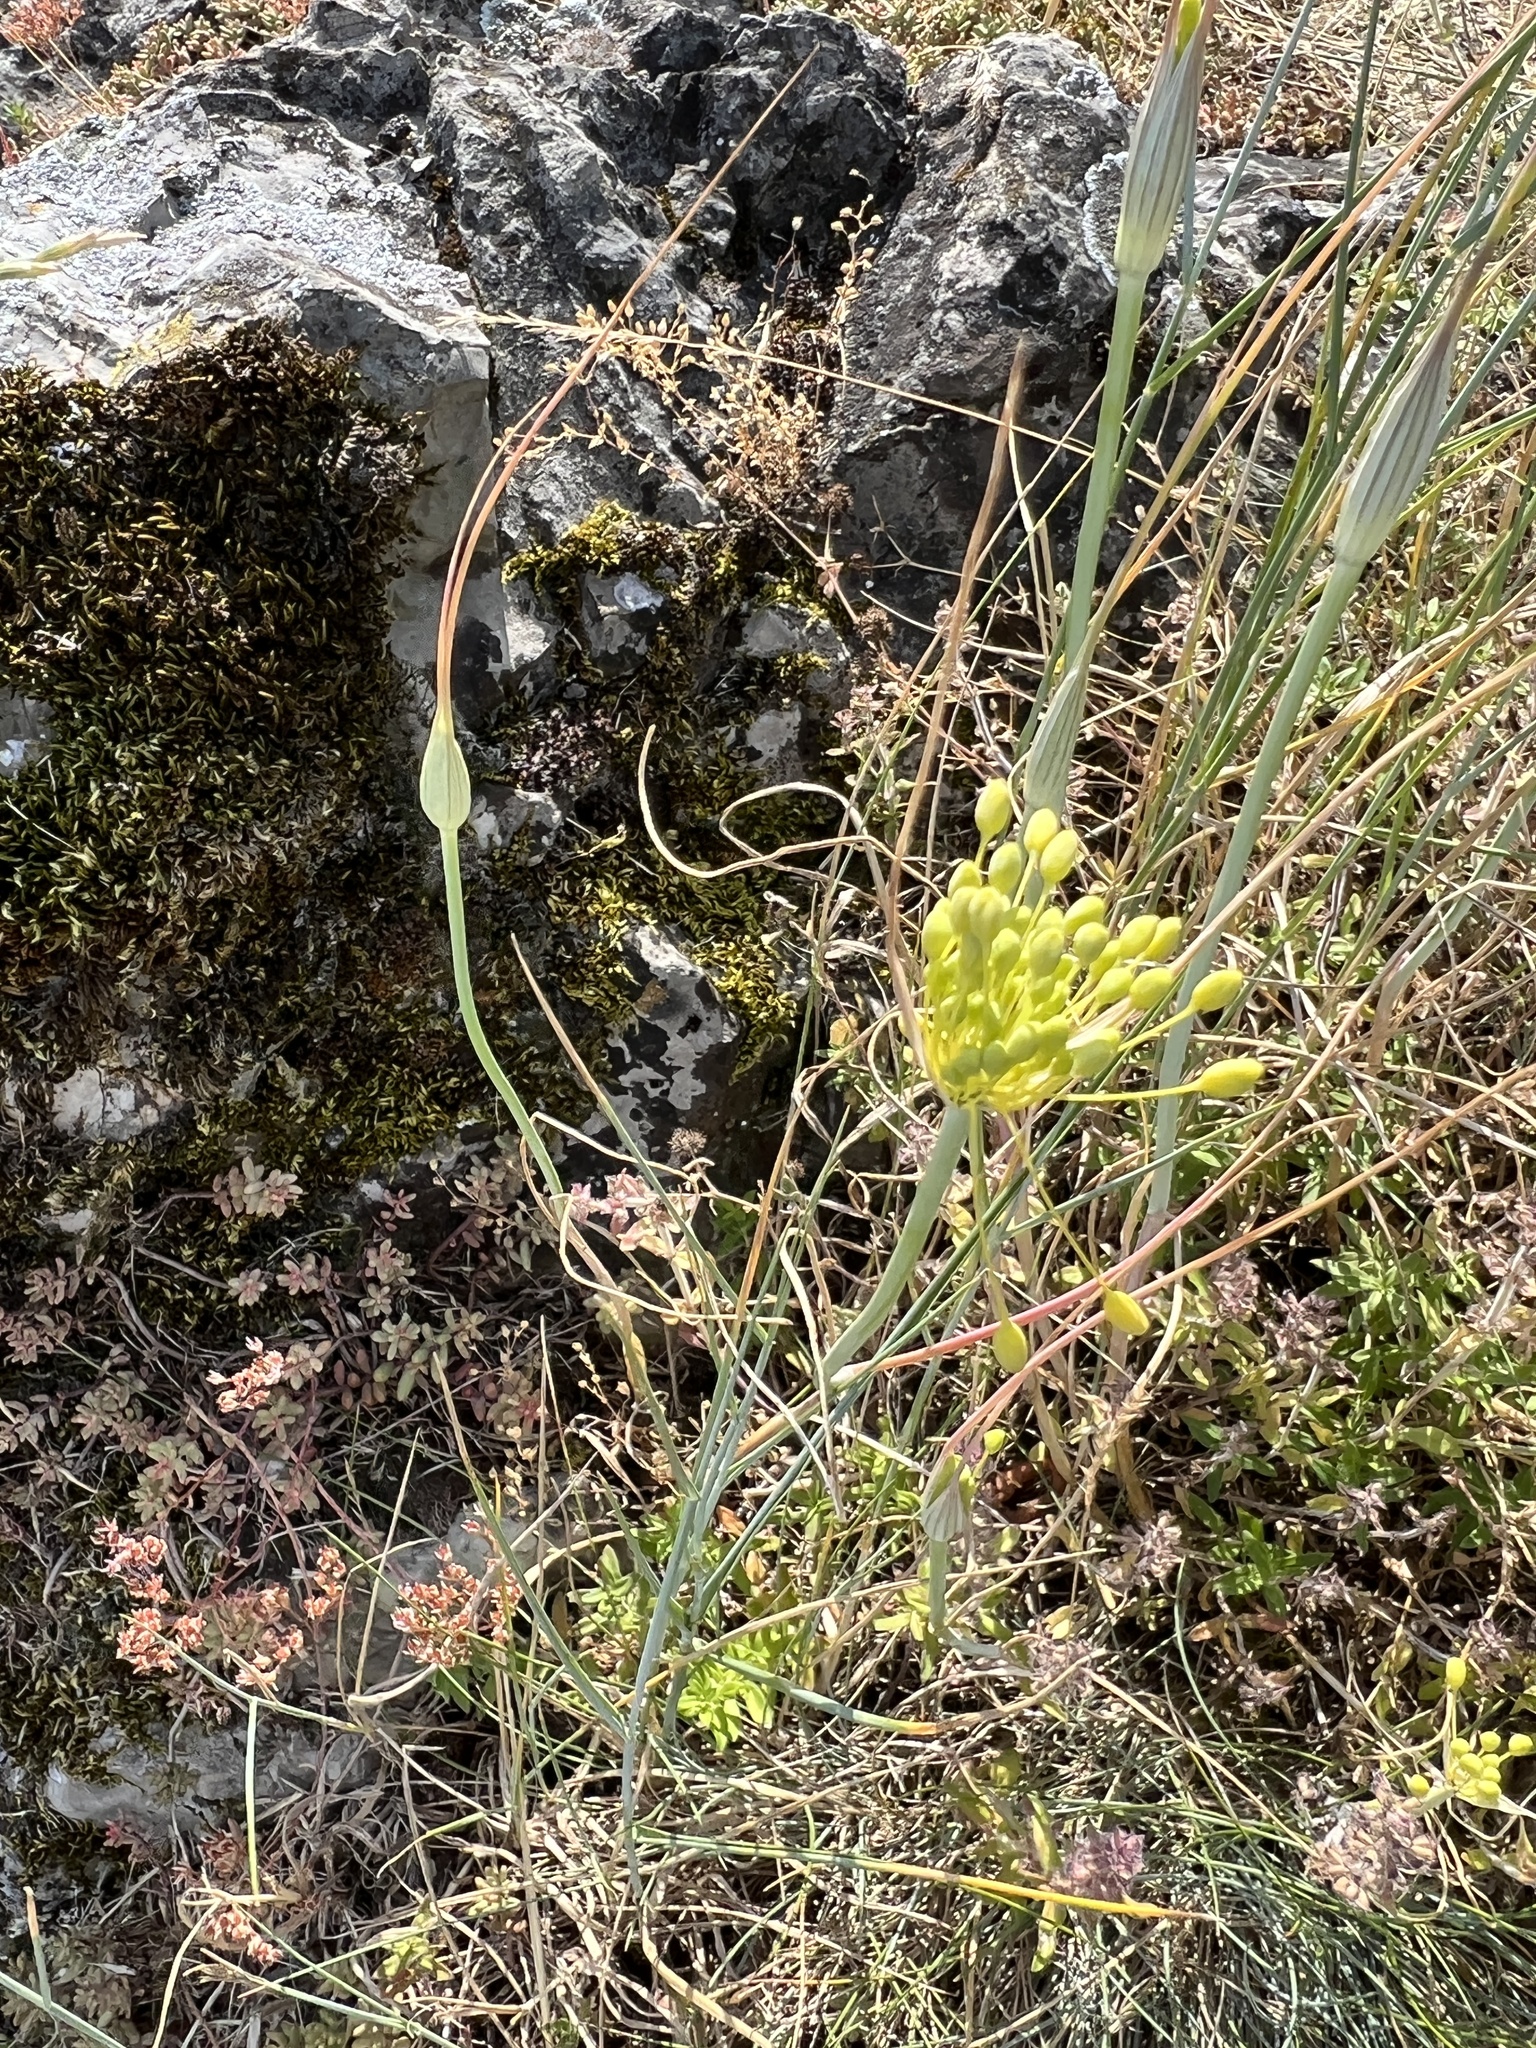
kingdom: Plantae
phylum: Tracheophyta
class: Liliopsida
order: Asparagales
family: Amaryllidaceae
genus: Allium
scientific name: Allium flavum
